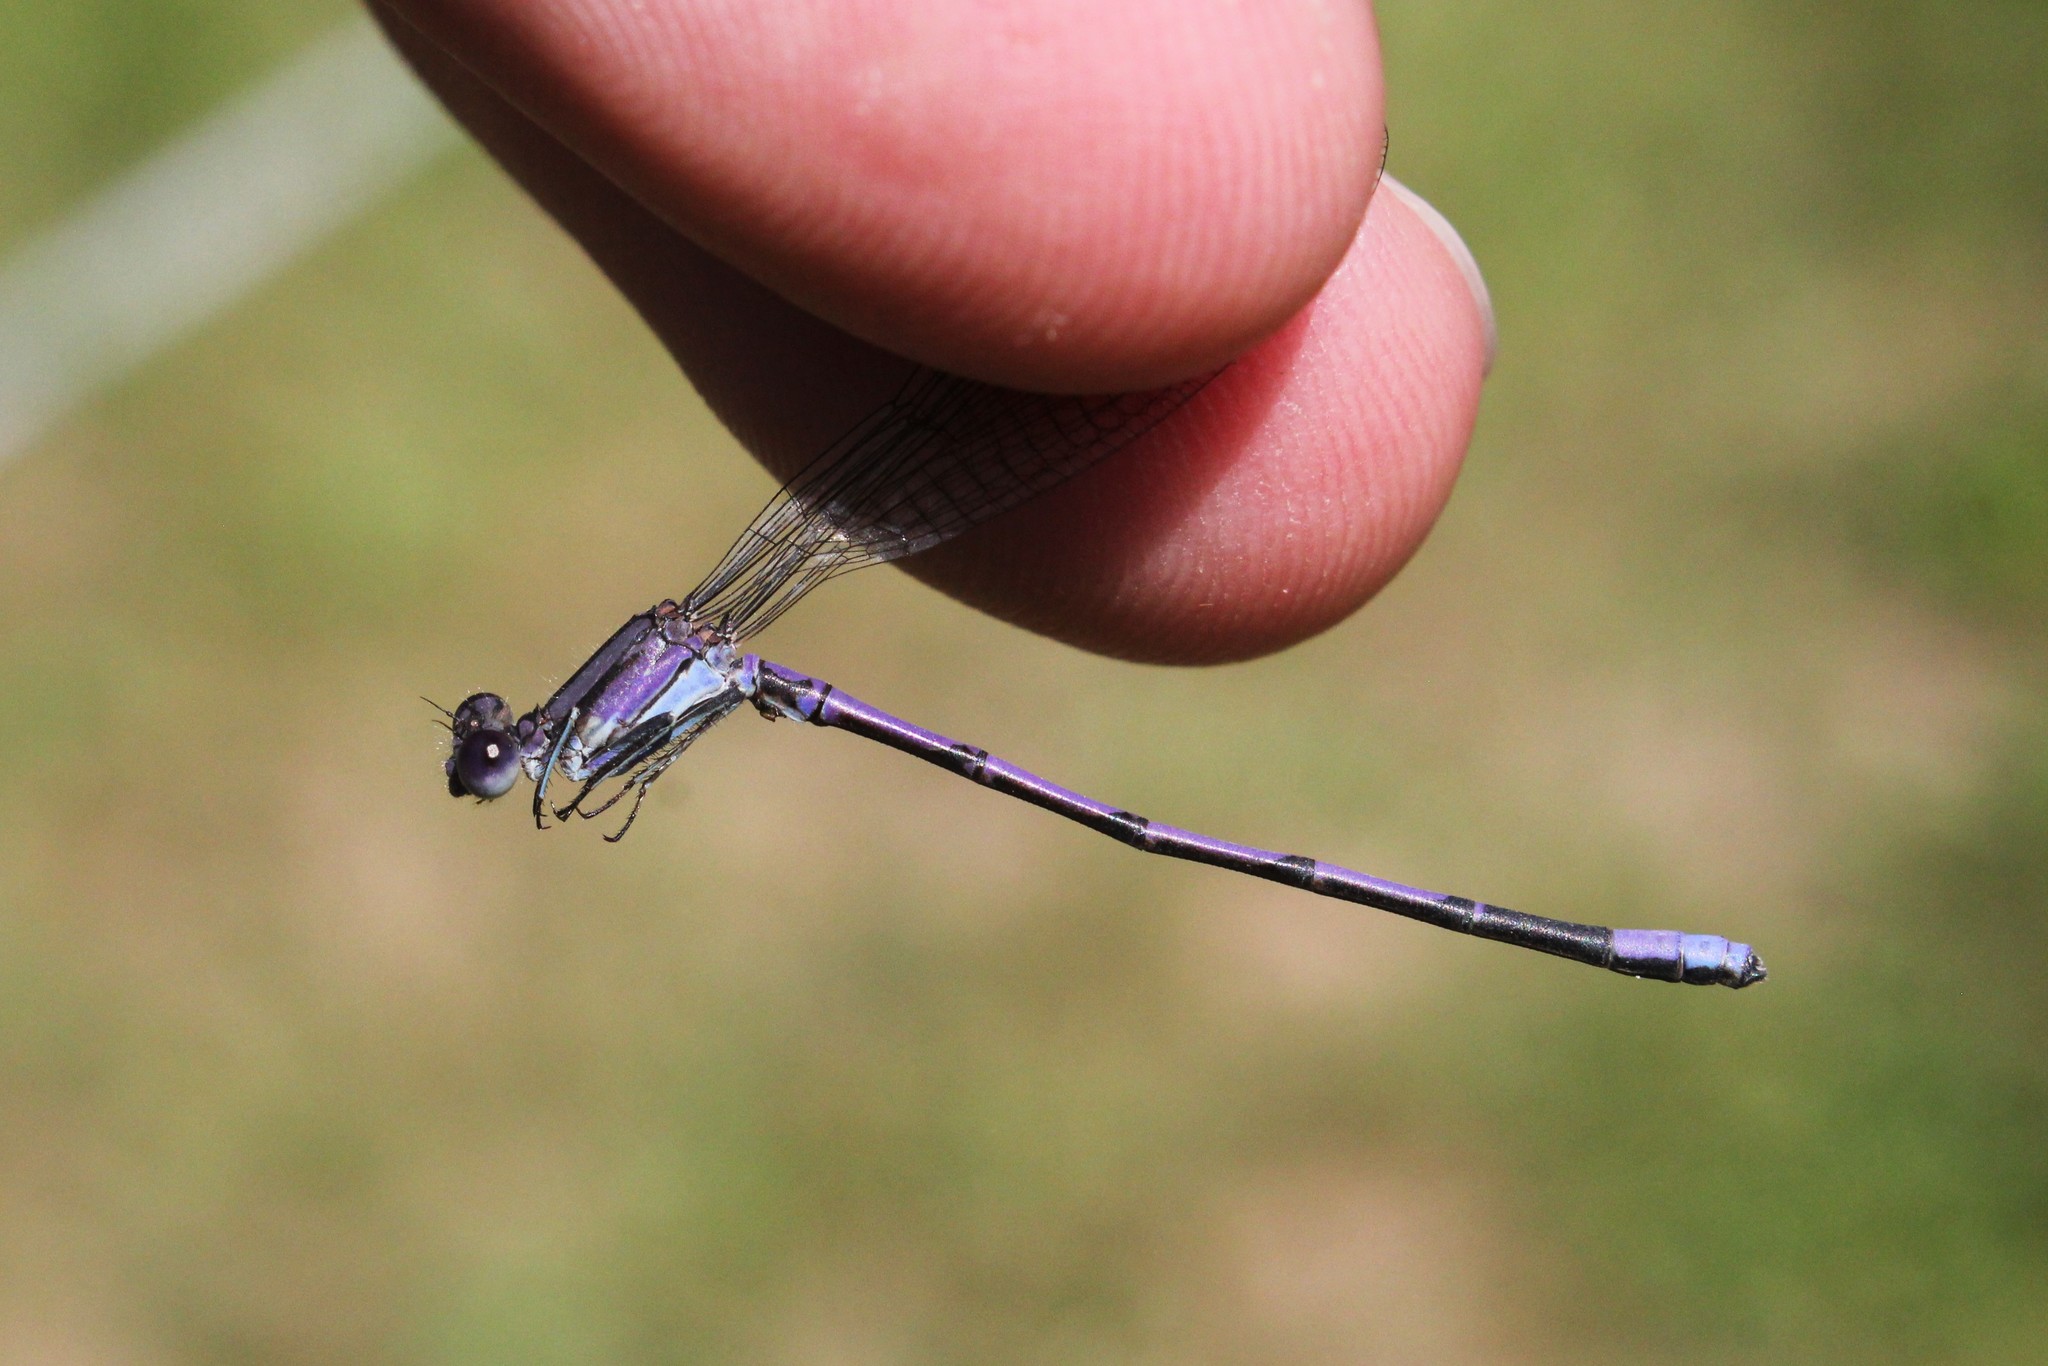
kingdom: Animalia
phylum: Arthropoda
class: Insecta
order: Odonata
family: Coenagrionidae
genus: Argia
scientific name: Argia fumipennis
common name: Variable dancer
